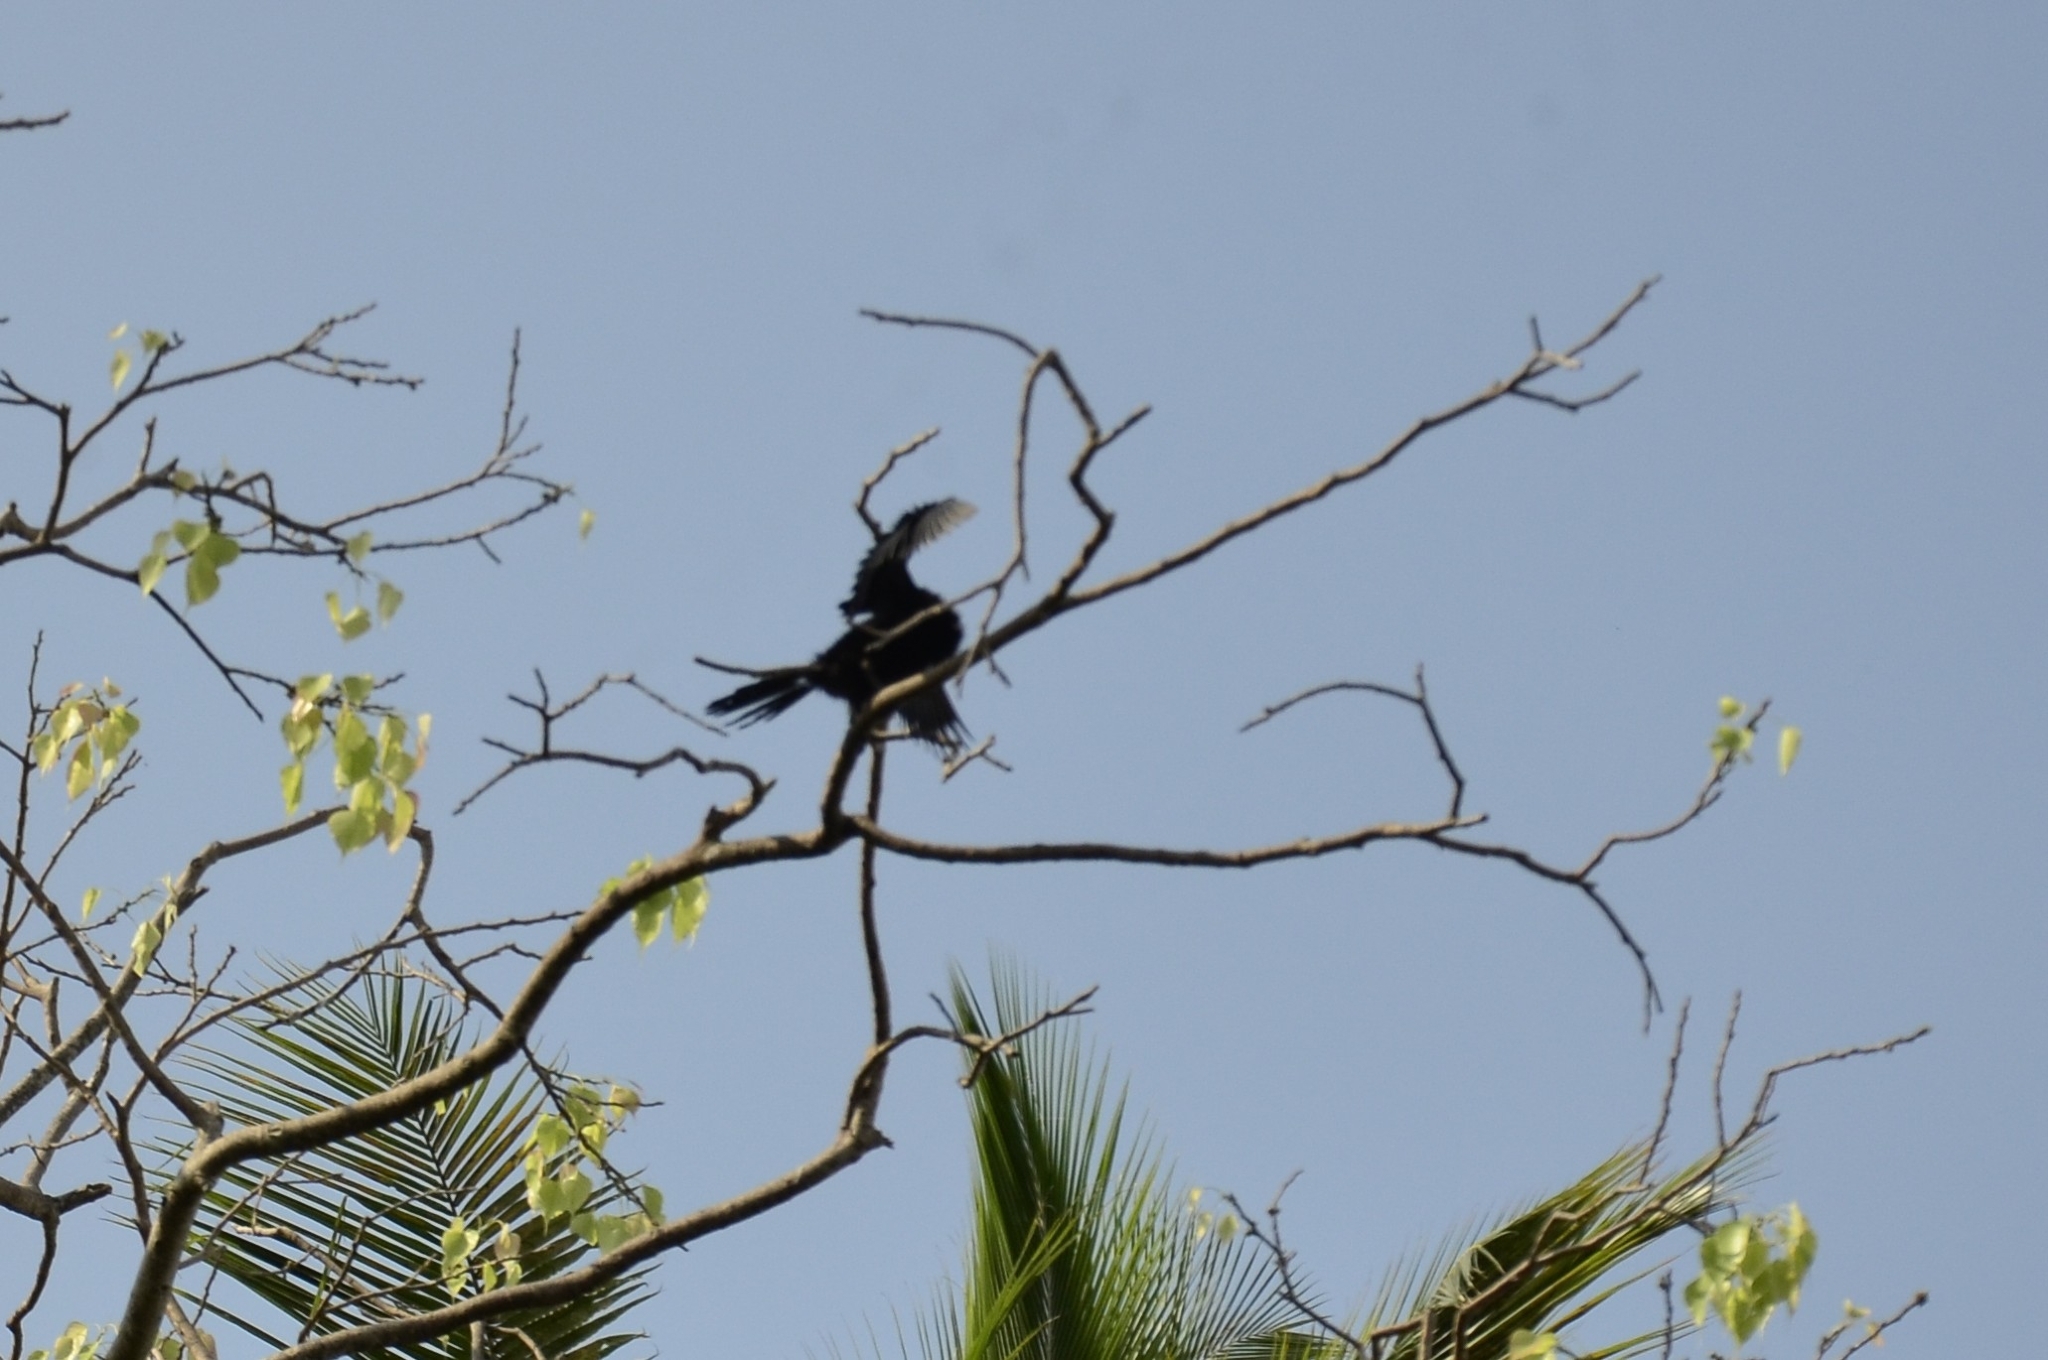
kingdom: Animalia
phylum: Chordata
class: Aves
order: Suliformes
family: Phalacrocoracidae
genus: Microcarbo
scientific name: Microcarbo niger
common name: Little cormorant
